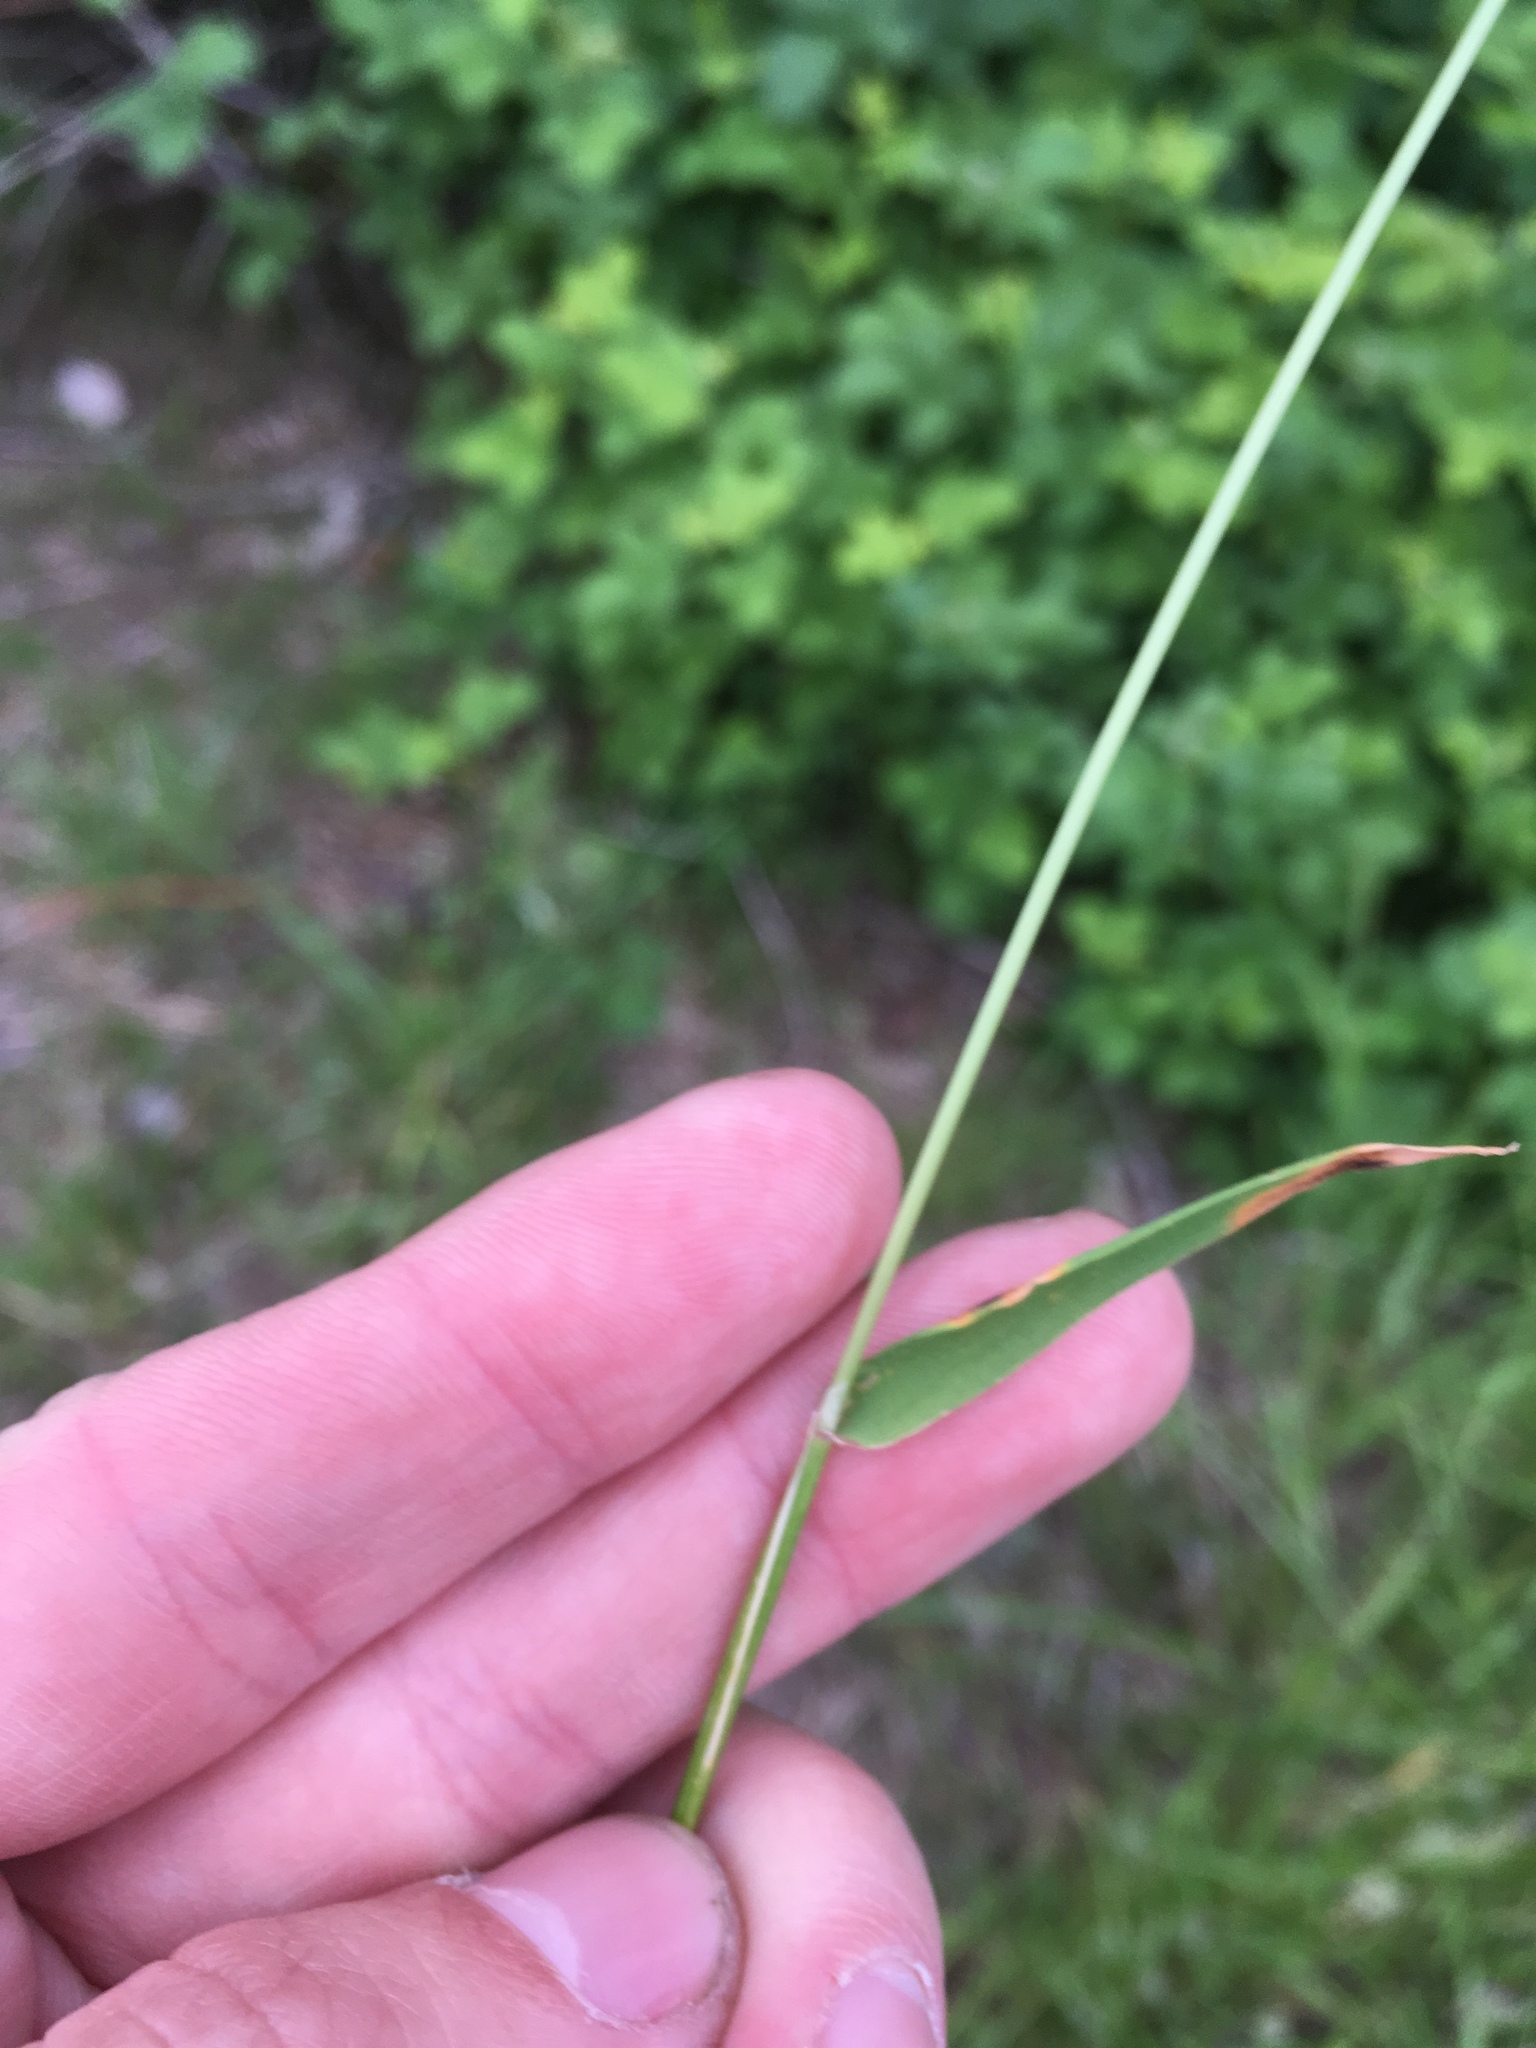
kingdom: Plantae
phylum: Tracheophyta
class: Liliopsida
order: Poales
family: Poaceae
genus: Anthoxanthum
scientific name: Anthoxanthum odoratum
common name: Sweet vernalgrass
